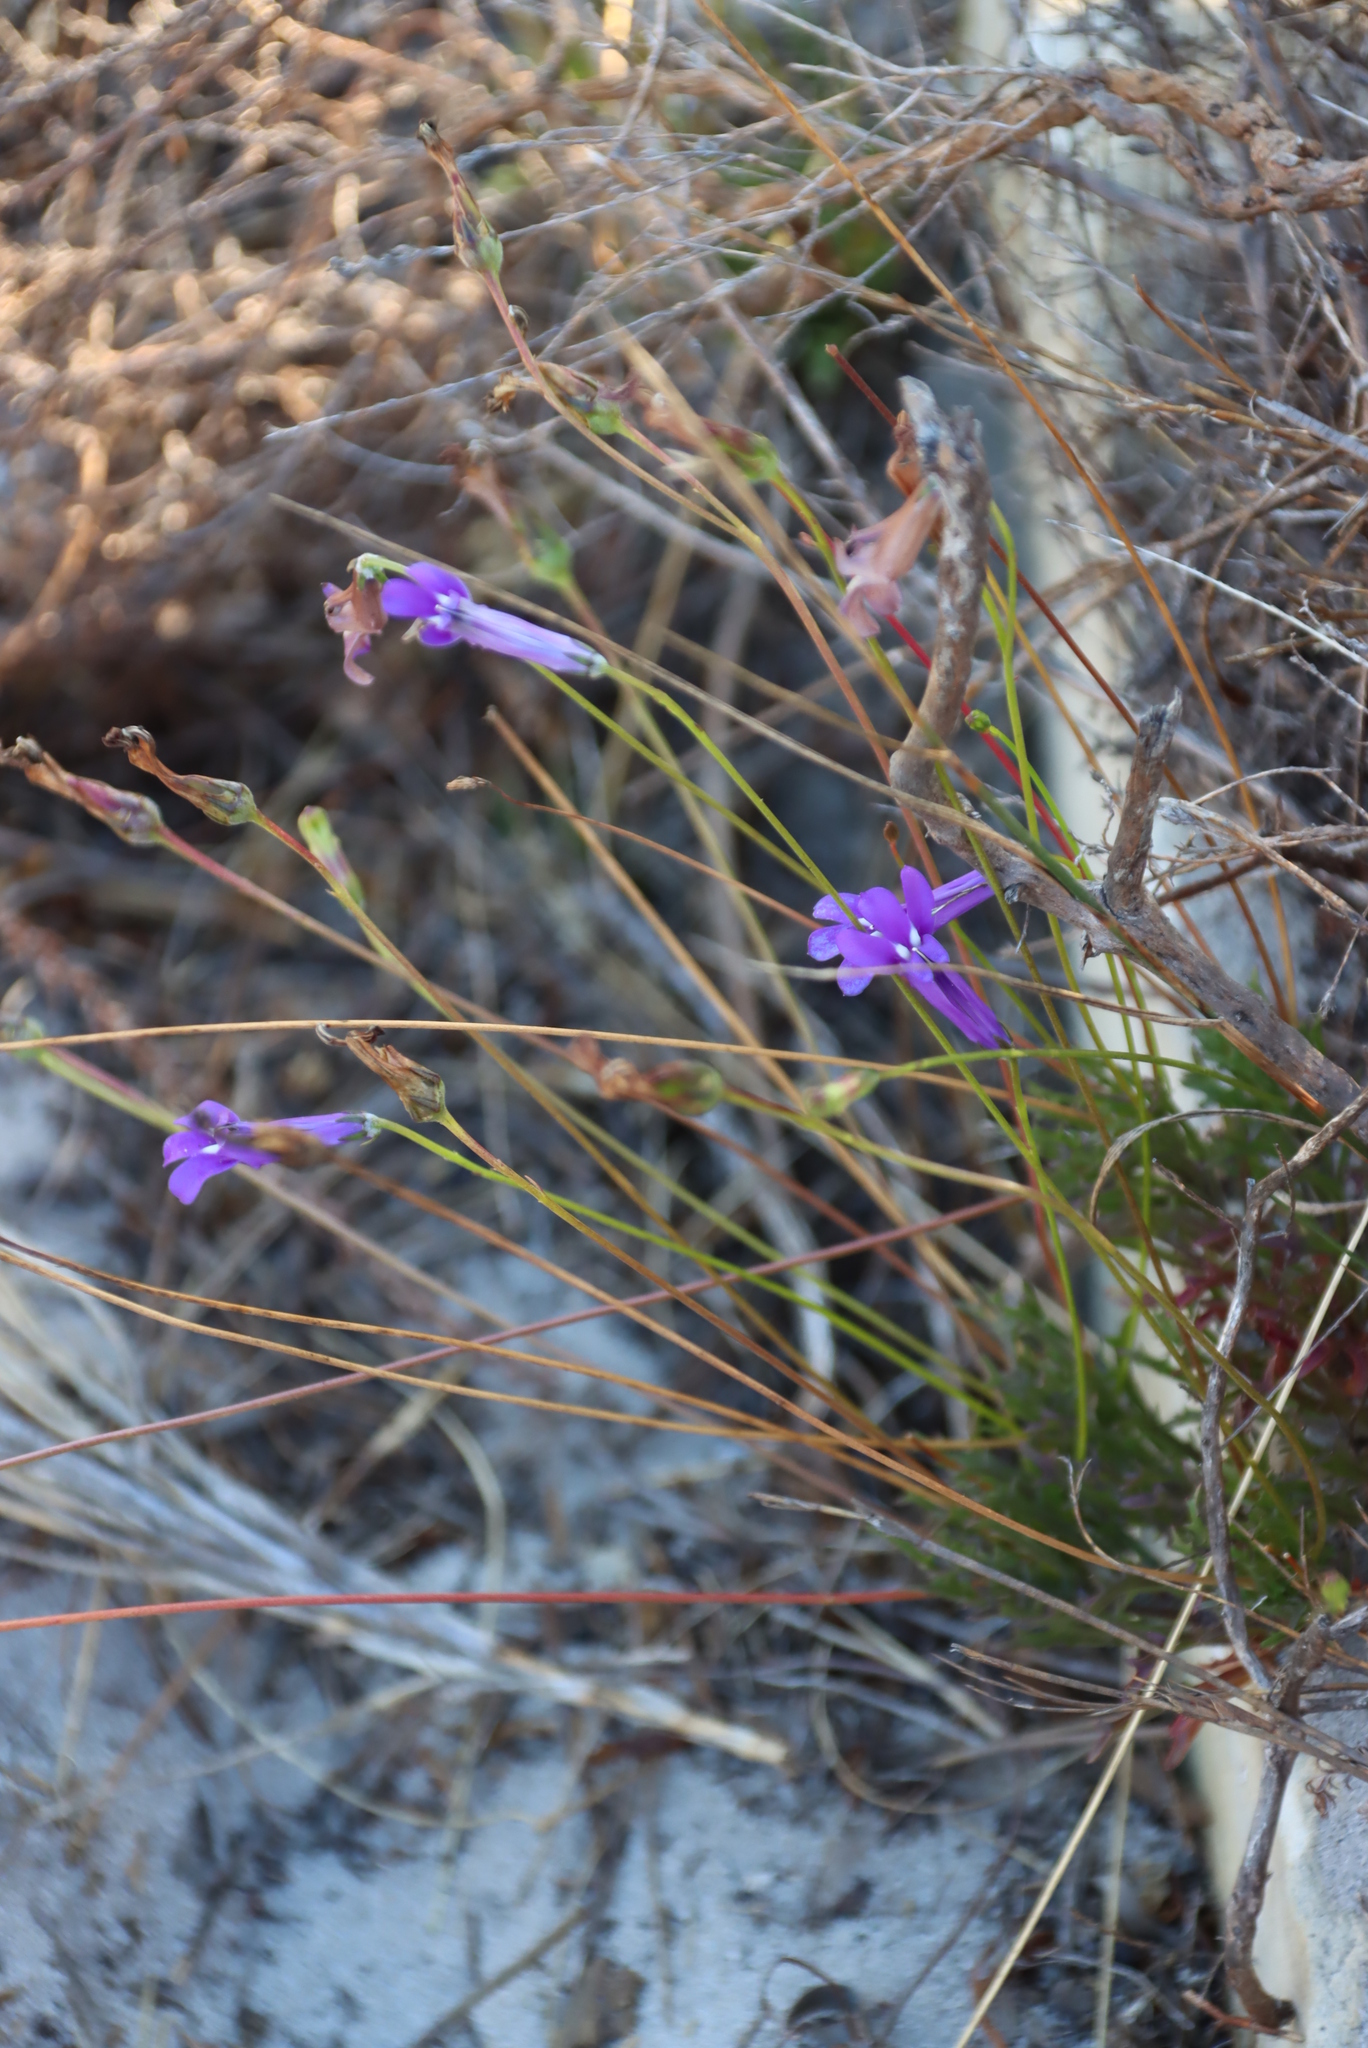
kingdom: Plantae
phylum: Tracheophyta
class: Magnoliopsida
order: Asterales
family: Campanulaceae
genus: Lobelia
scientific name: Lobelia coronopifolia
